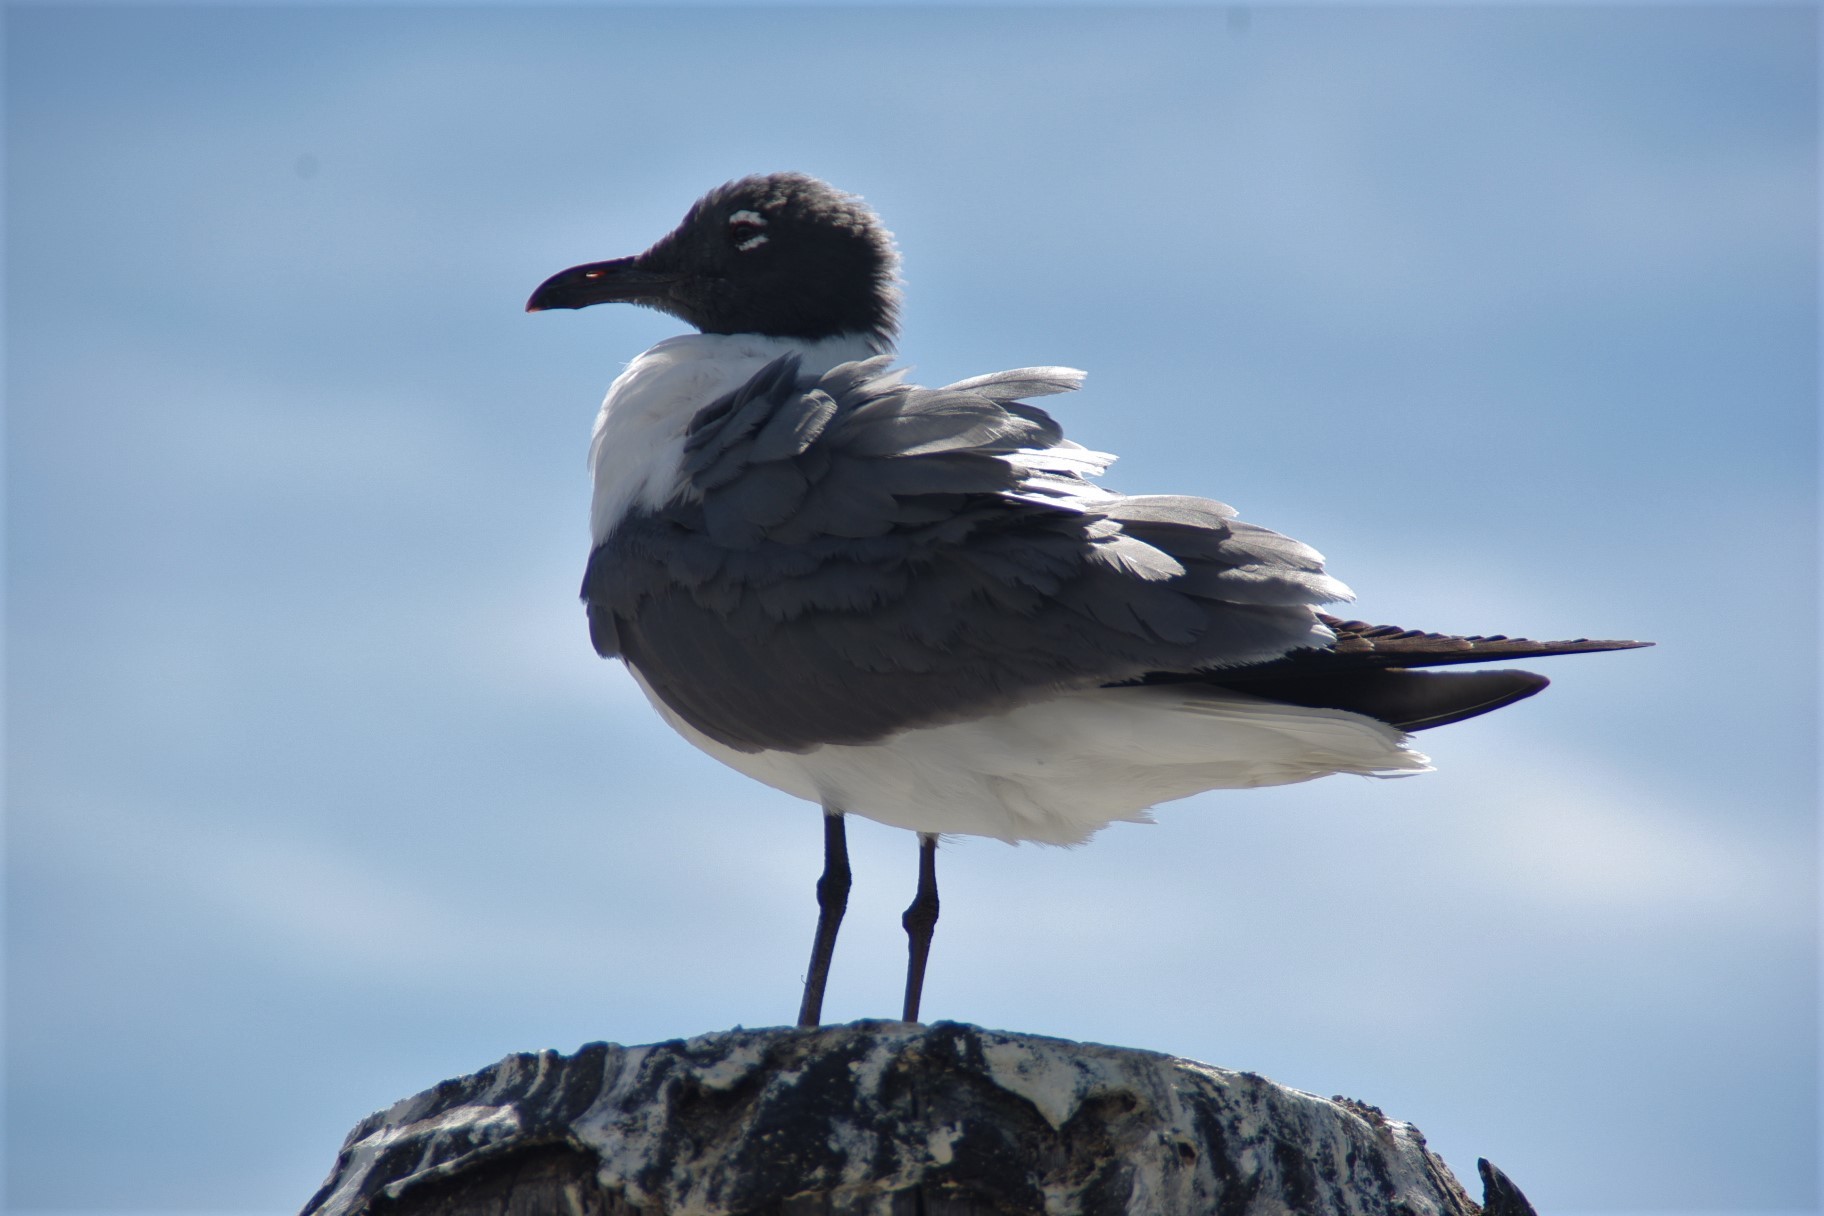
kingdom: Animalia
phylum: Chordata
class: Aves
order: Charadriiformes
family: Laridae
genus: Leucophaeus
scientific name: Leucophaeus atricilla
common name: Laughing gull
